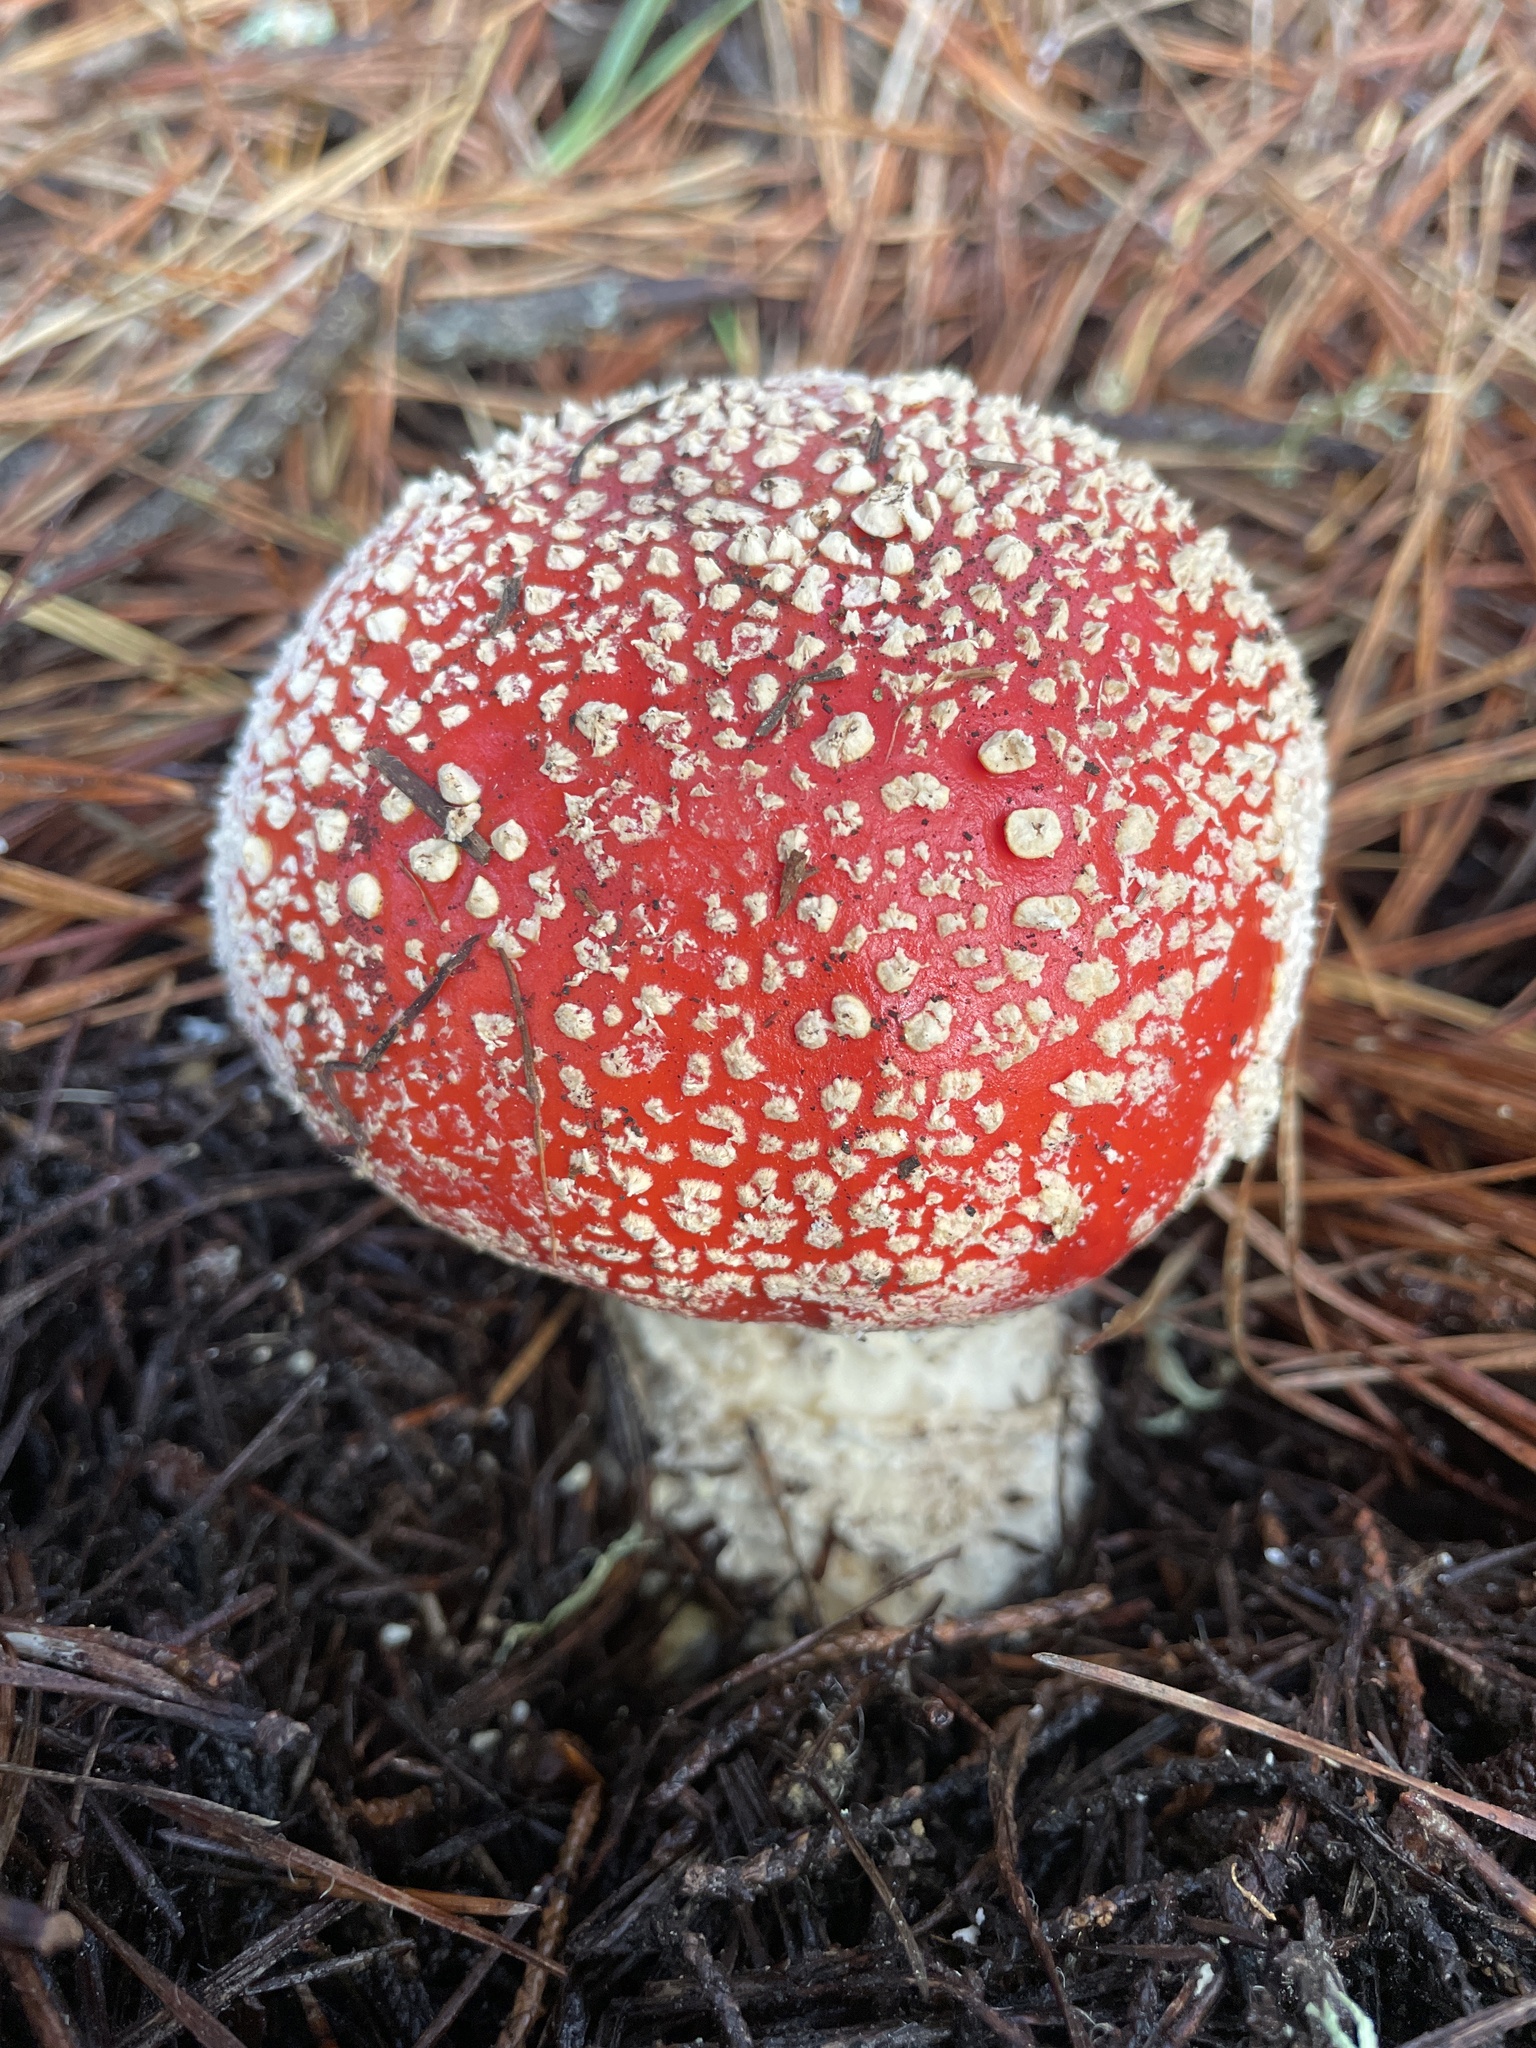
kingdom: Fungi
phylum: Basidiomycota
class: Agaricomycetes
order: Agaricales
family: Amanitaceae
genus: Amanita
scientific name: Amanita muscaria
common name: Fly agaric
